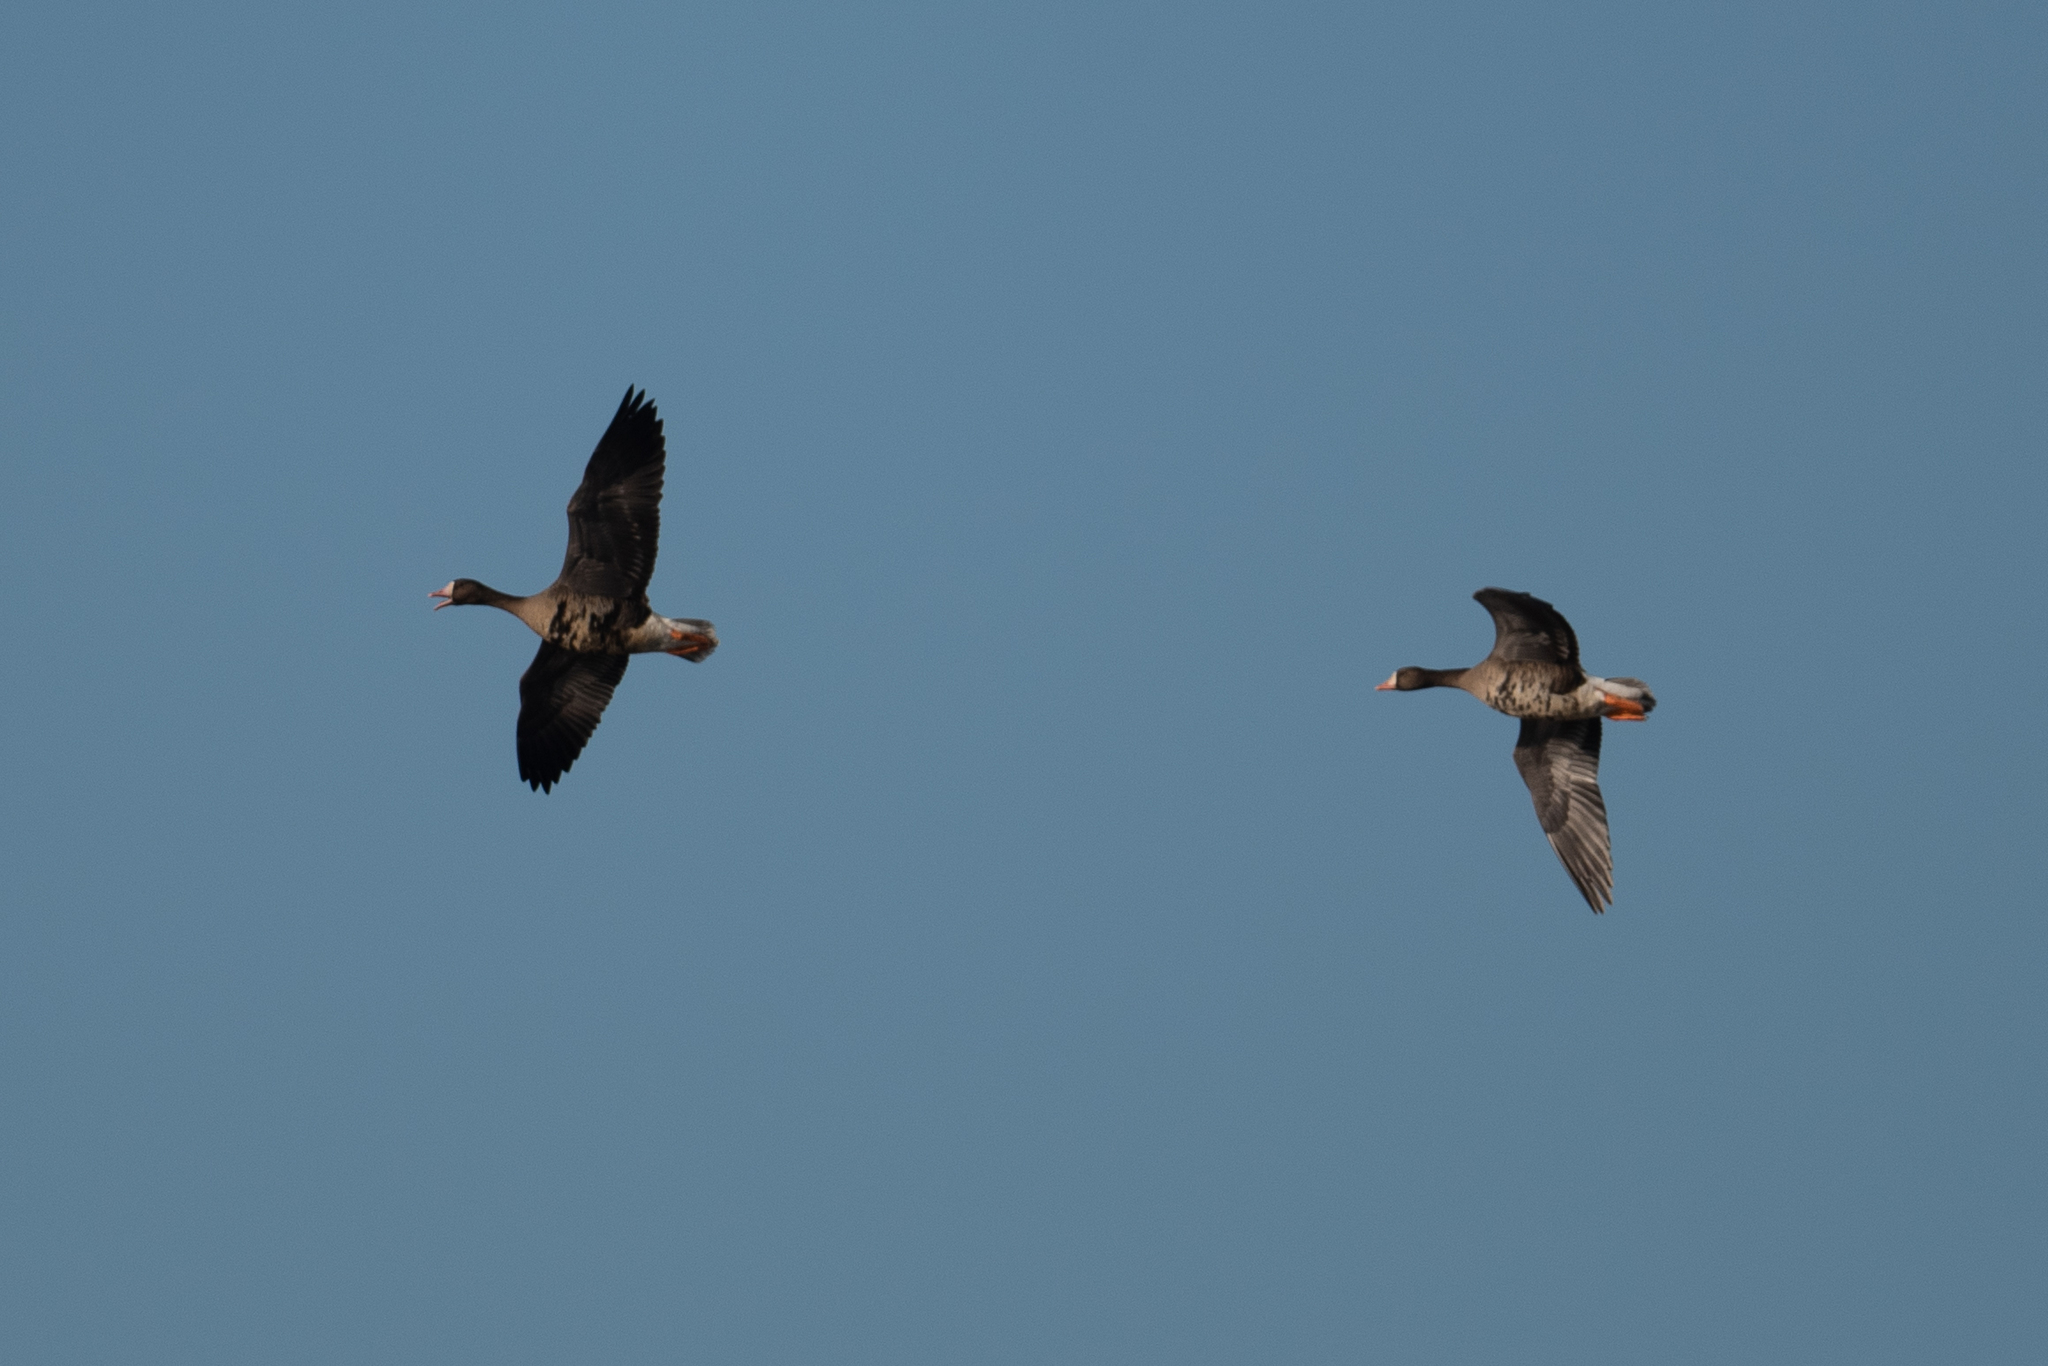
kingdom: Animalia
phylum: Chordata
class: Aves
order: Anseriformes
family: Anatidae
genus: Anser
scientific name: Anser albifrons
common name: Greater white-fronted goose
